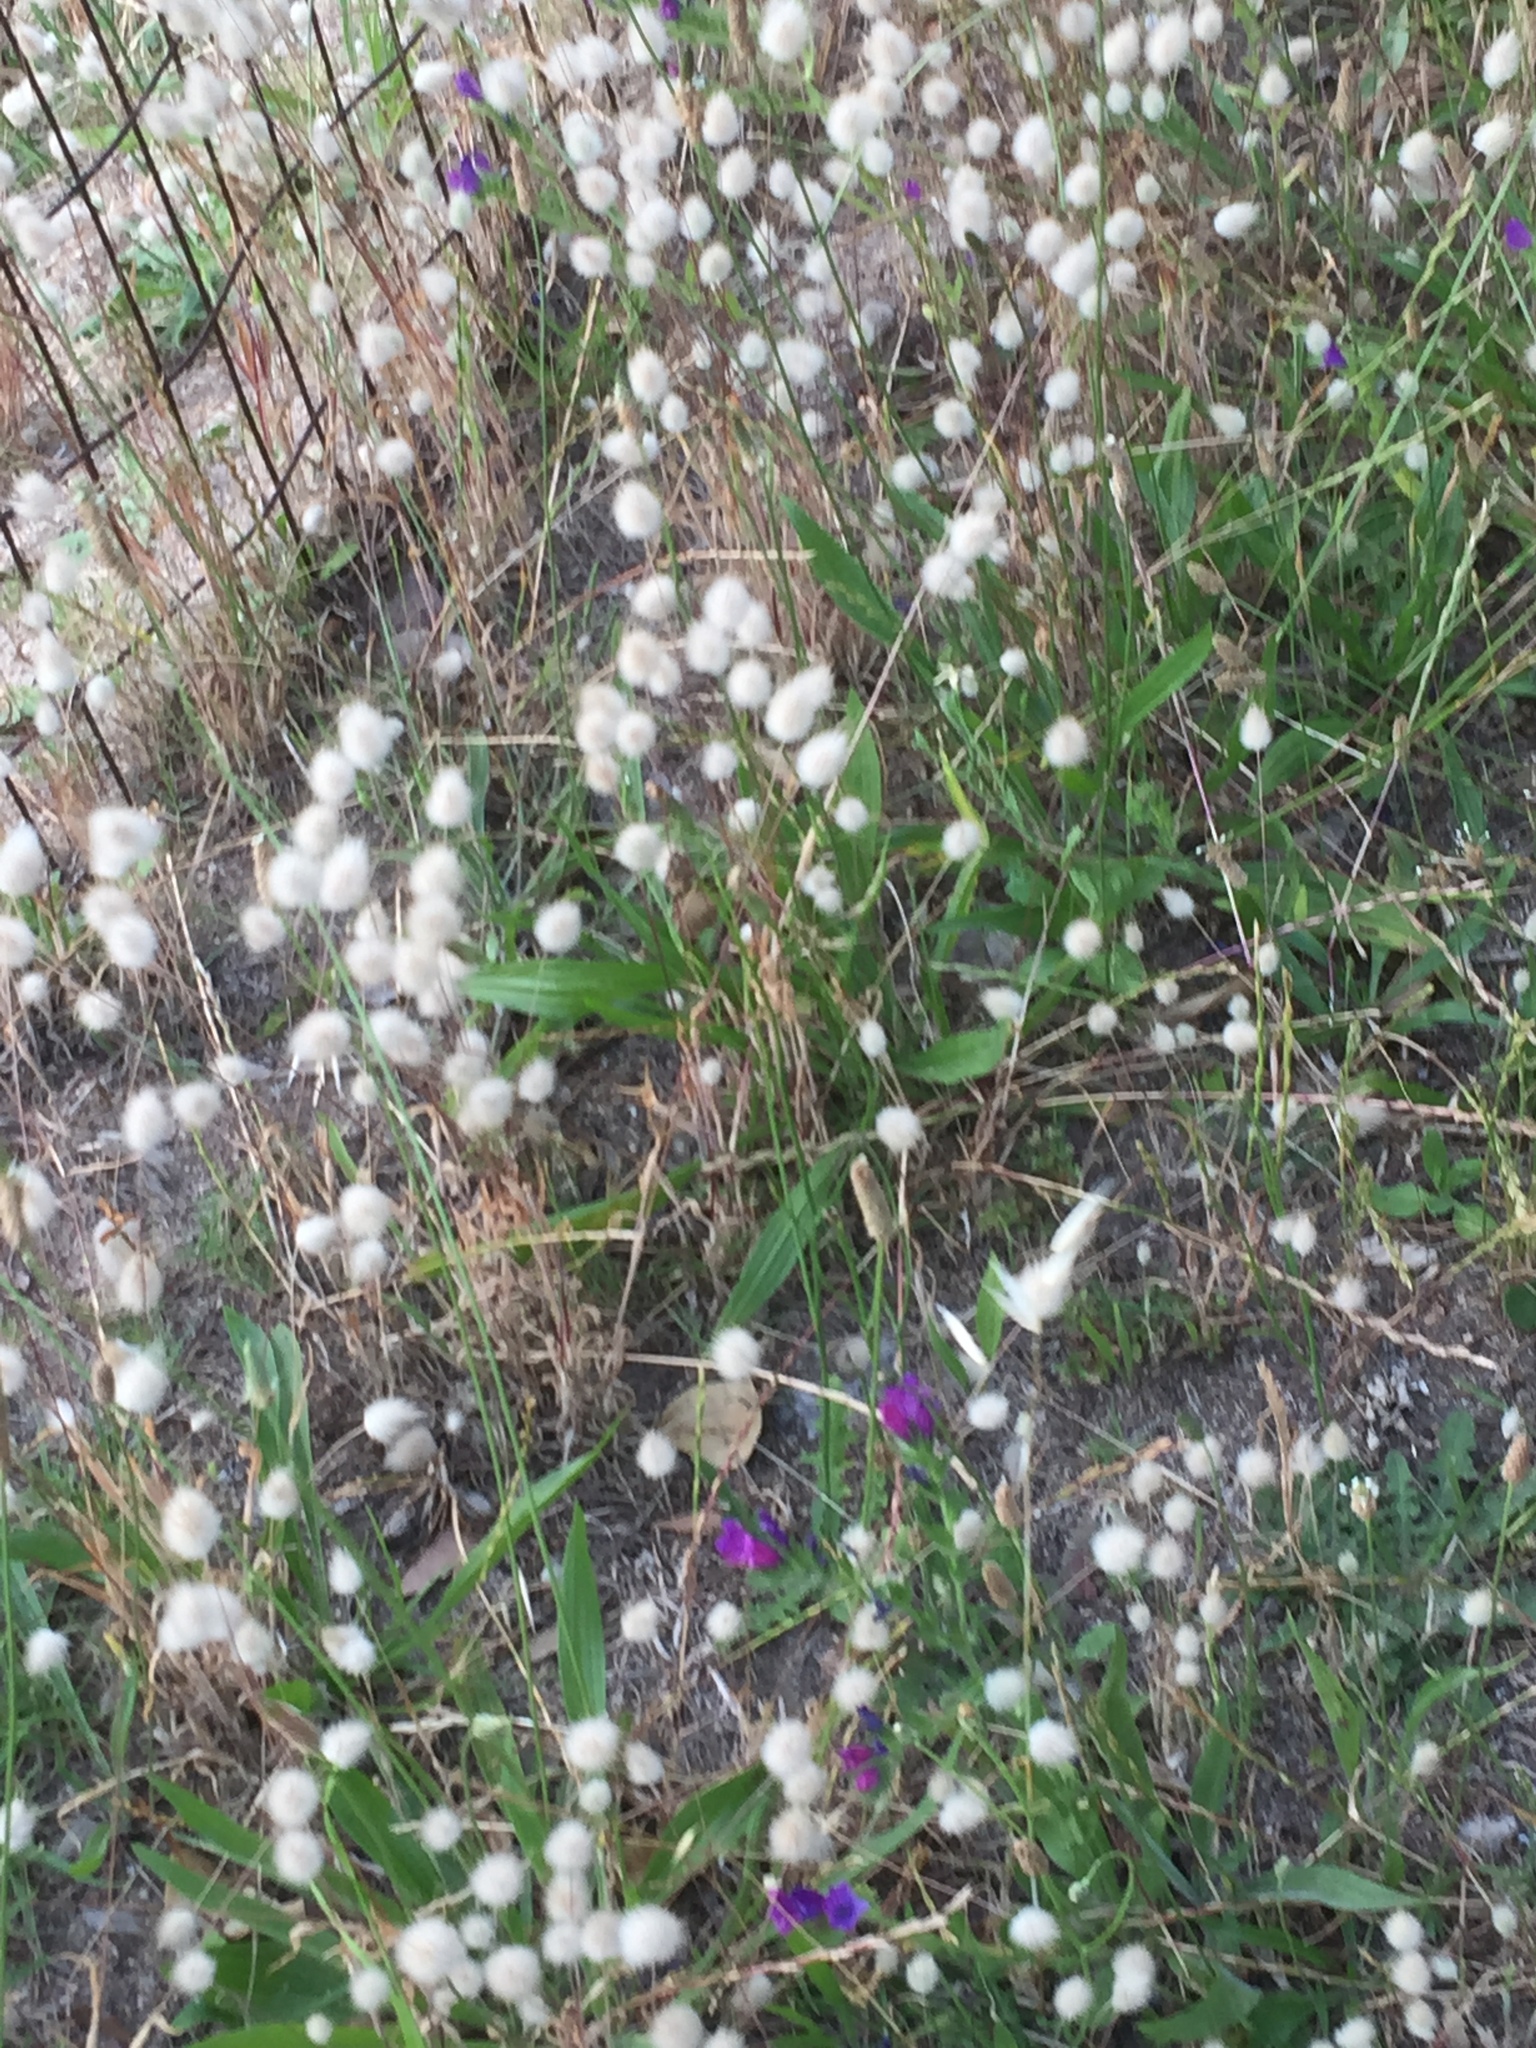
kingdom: Plantae
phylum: Tracheophyta
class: Liliopsida
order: Poales
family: Poaceae
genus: Lagurus
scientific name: Lagurus ovatus
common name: Hare's-tail
